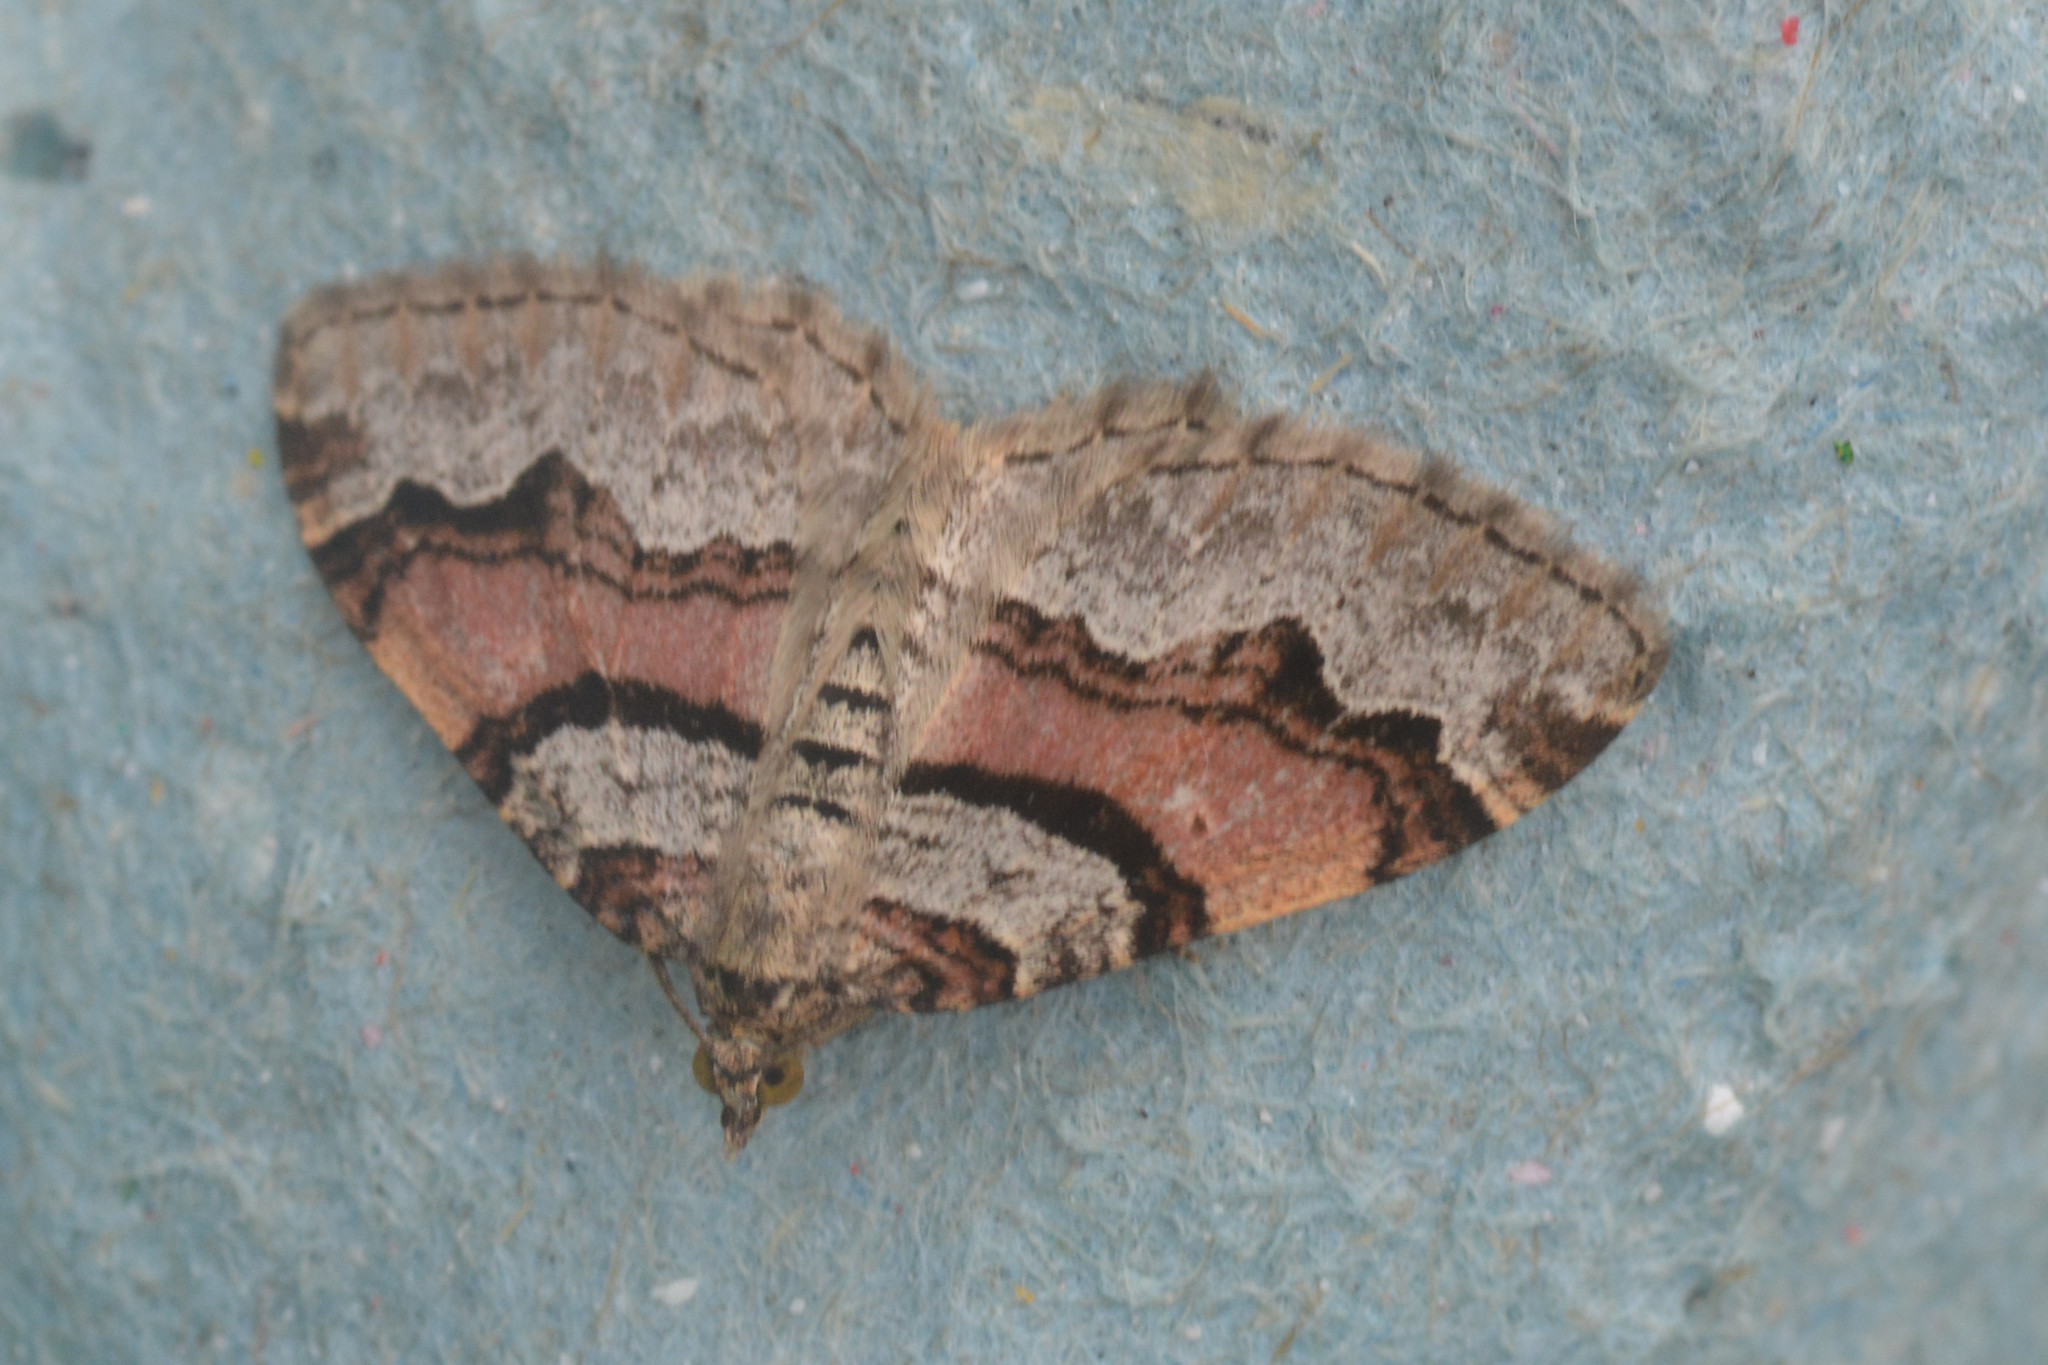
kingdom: Animalia
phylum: Arthropoda
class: Insecta
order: Lepidoptera
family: Geometridae
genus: Xanthorhoe
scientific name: Xanthorhoe designata
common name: Flame carpet
